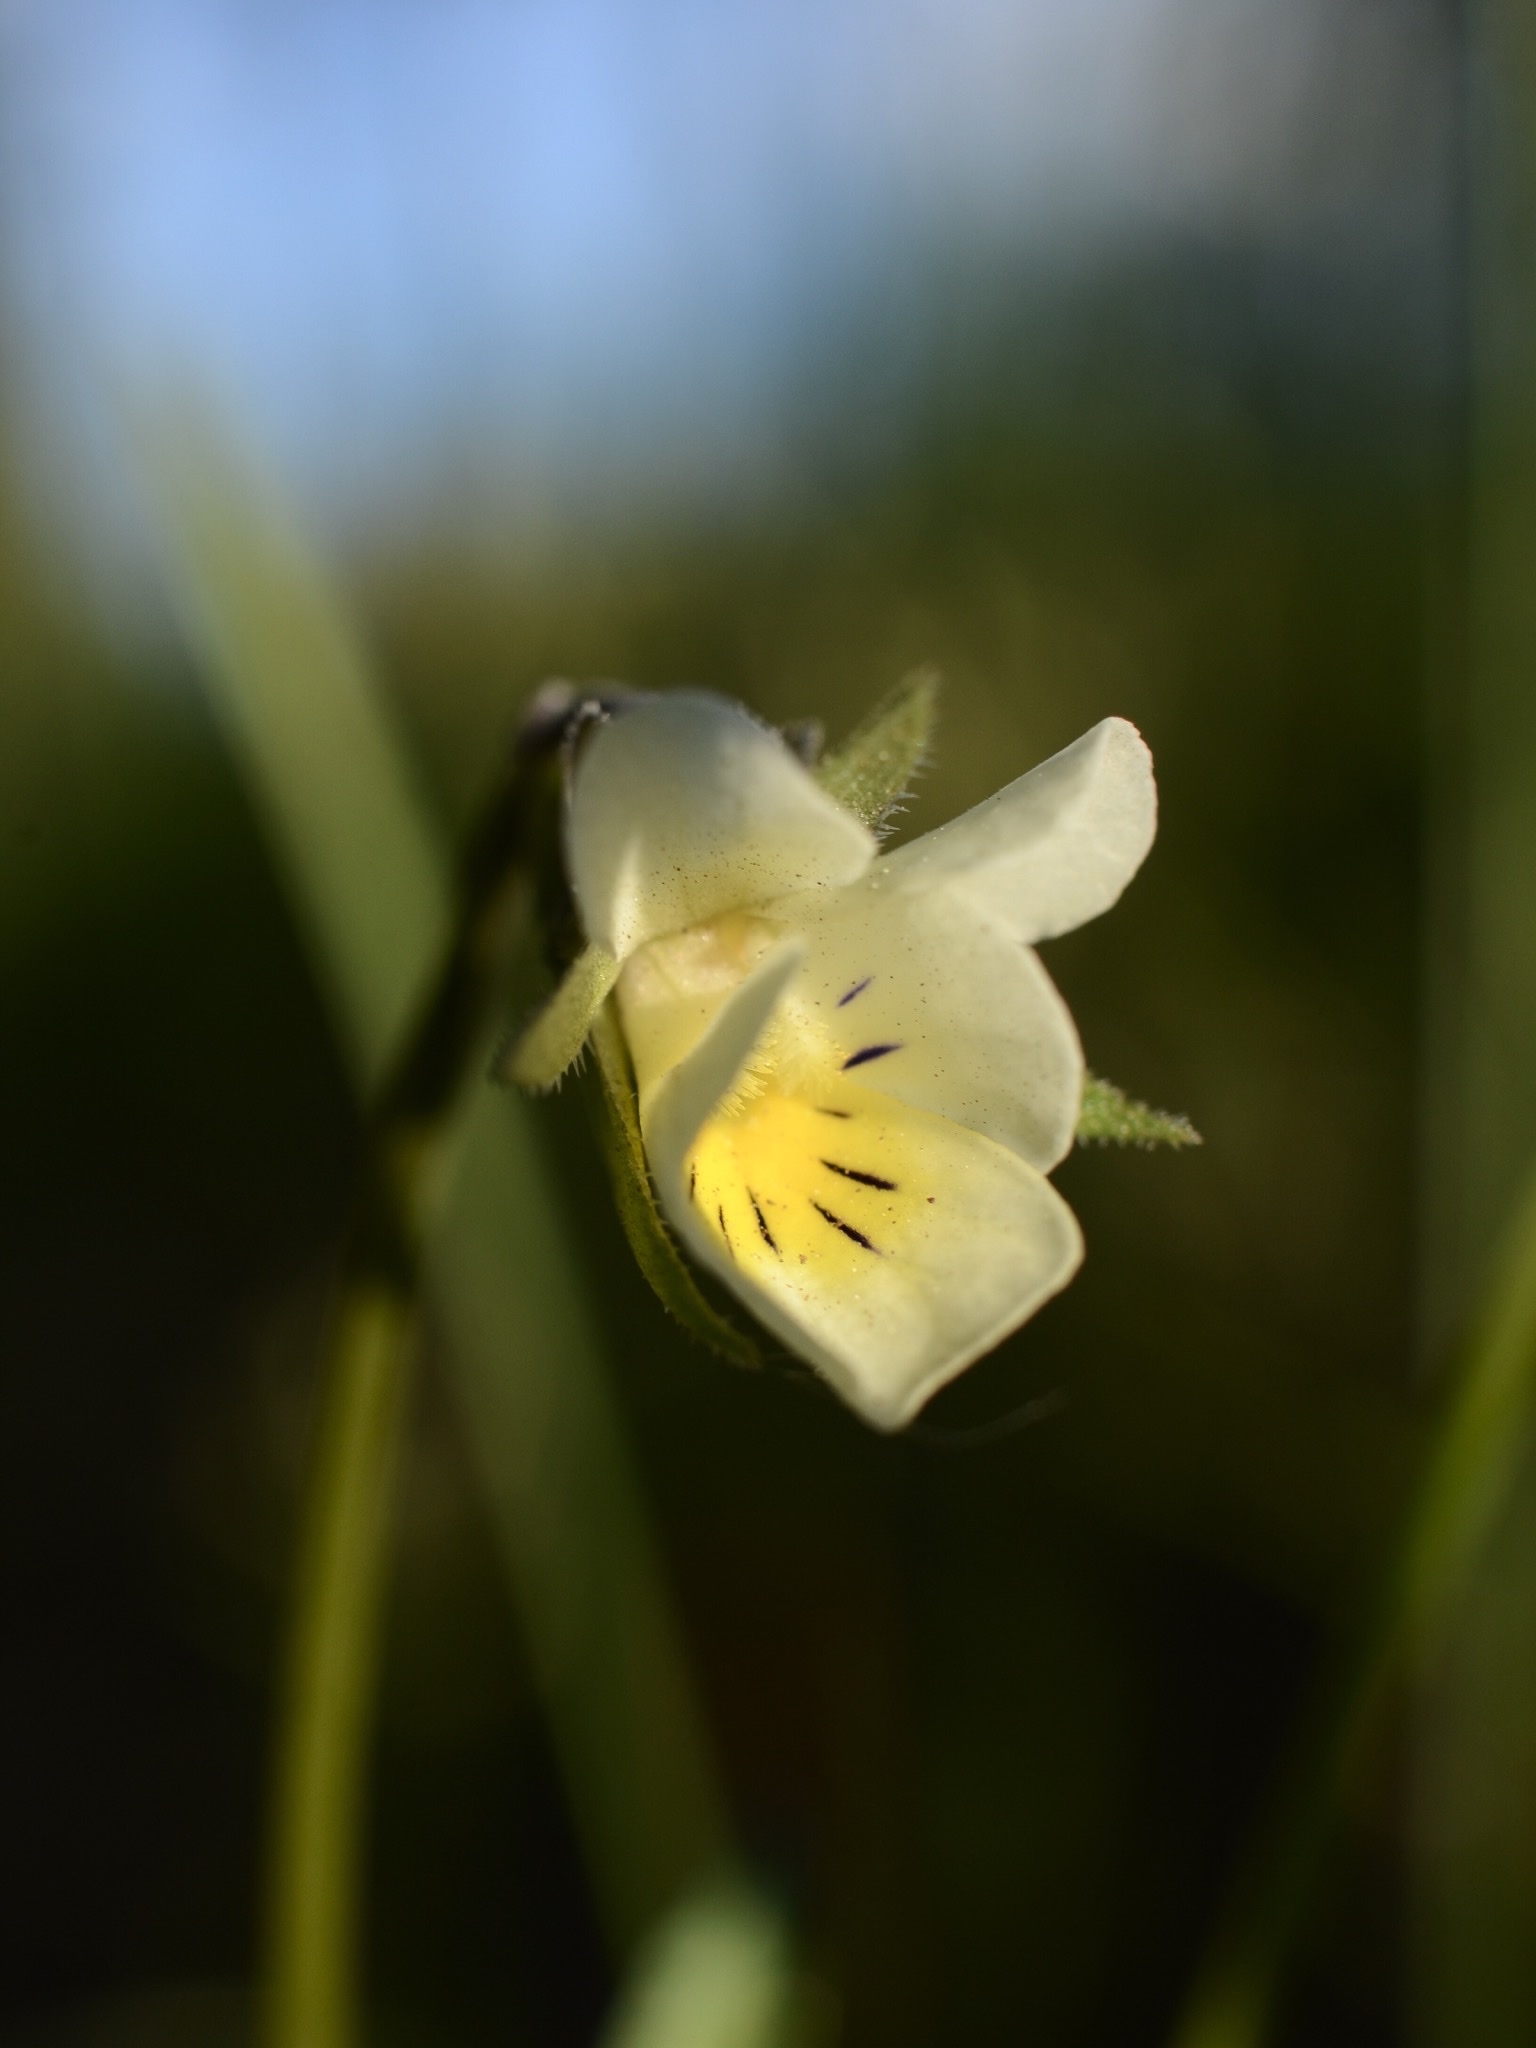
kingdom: Plantae
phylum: Tracheophyta
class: Magnoliopsida
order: Malpighiales
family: Violaceae
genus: Viola
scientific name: Viola arvensis
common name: Field pansy
